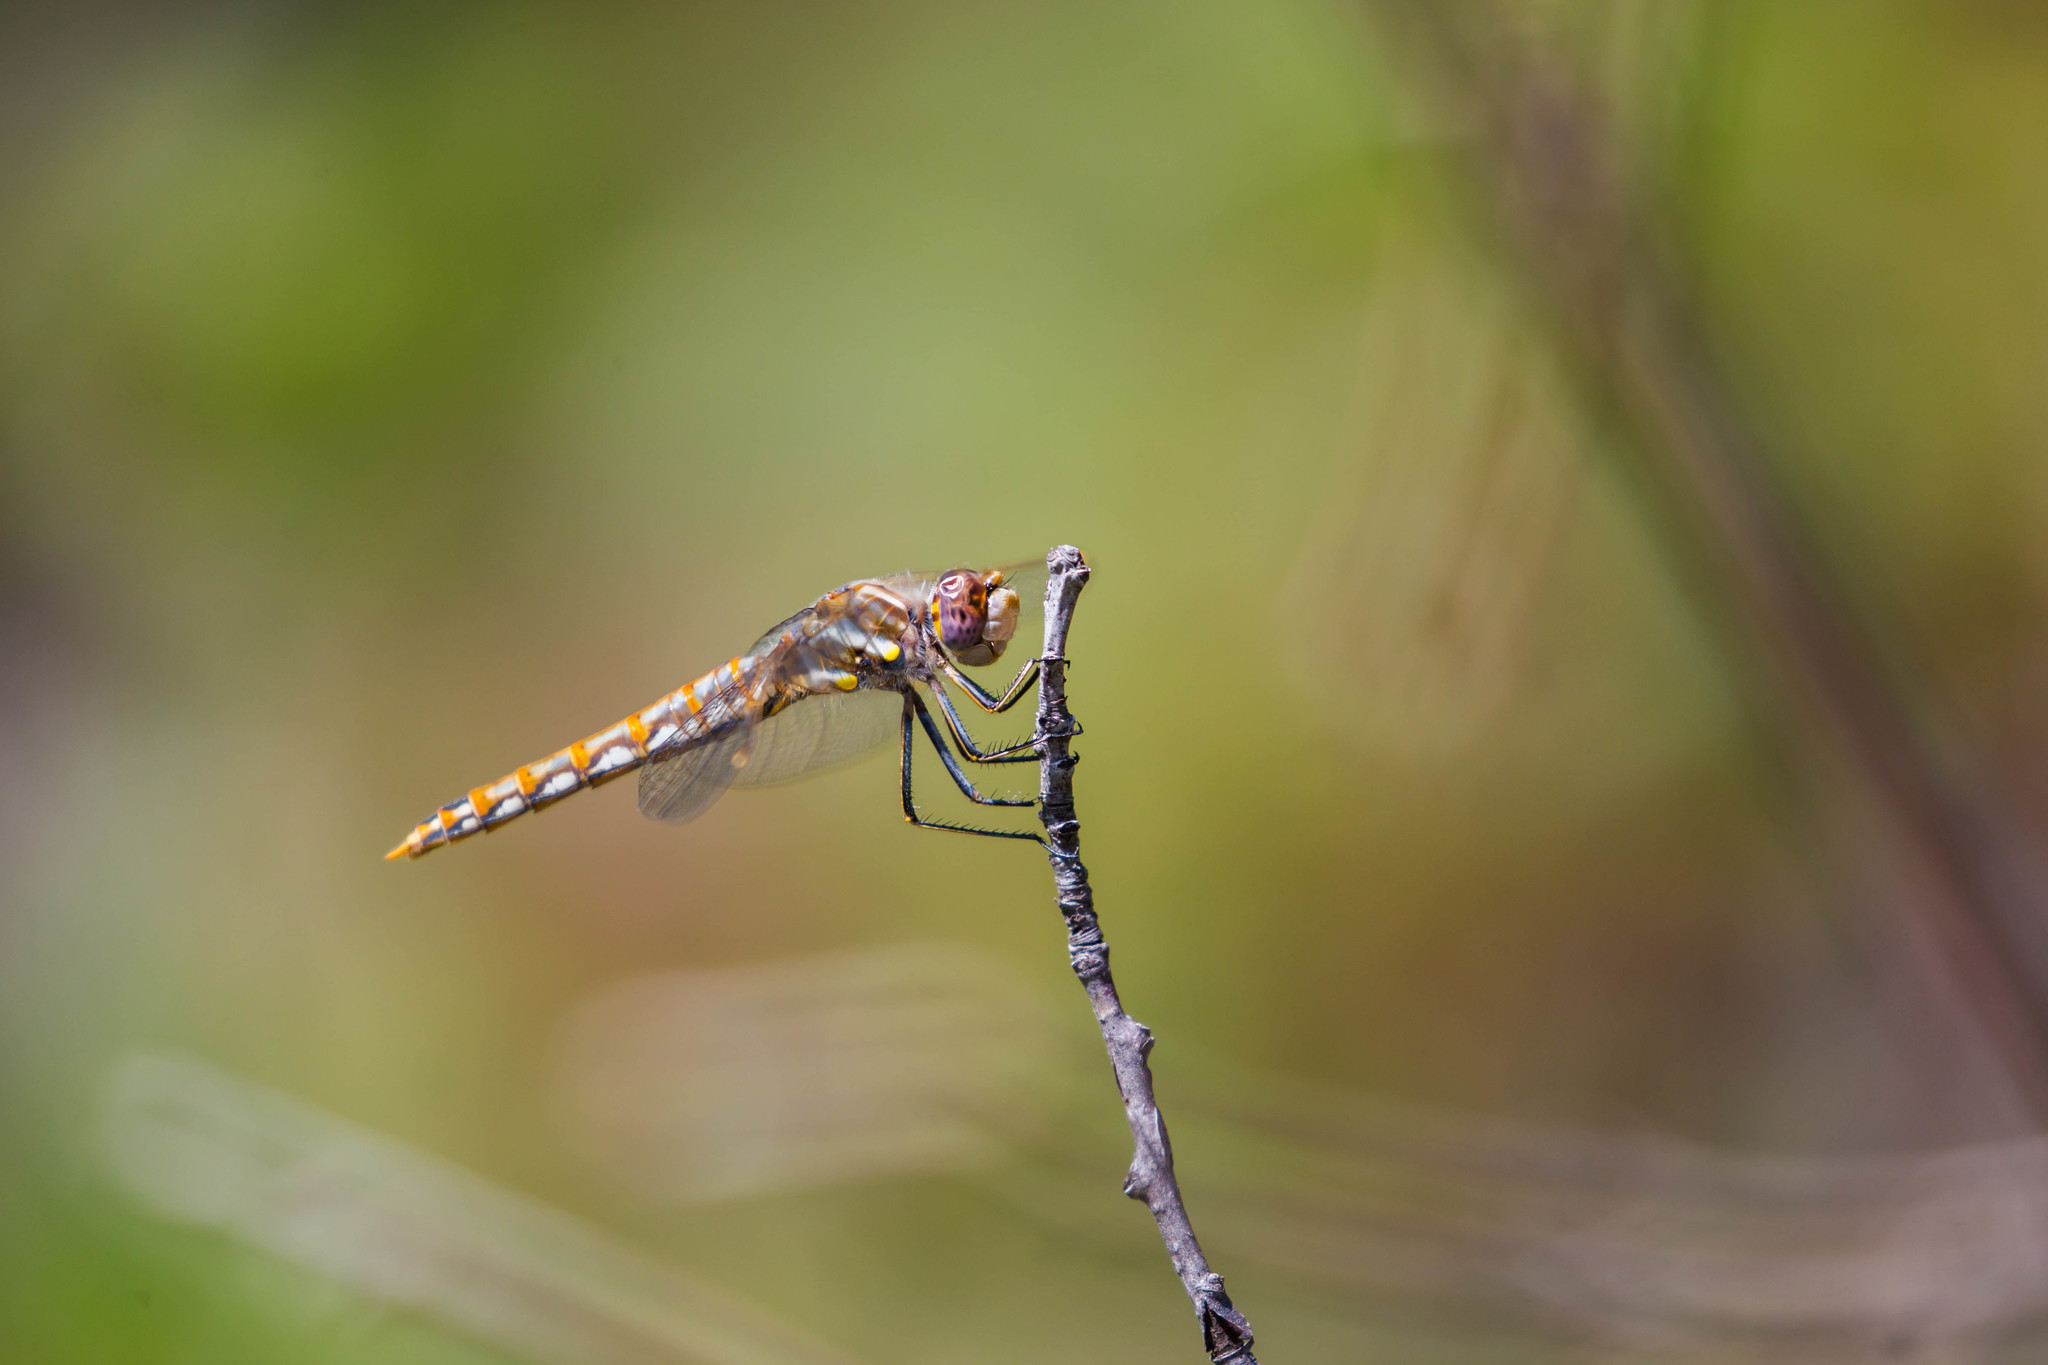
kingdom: Animalia
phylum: Arthropoda
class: Insecta
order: Odonata
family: Libellulidae
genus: Sympetrum
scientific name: Sympetrum corruptum
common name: Variegated meadowhawk
